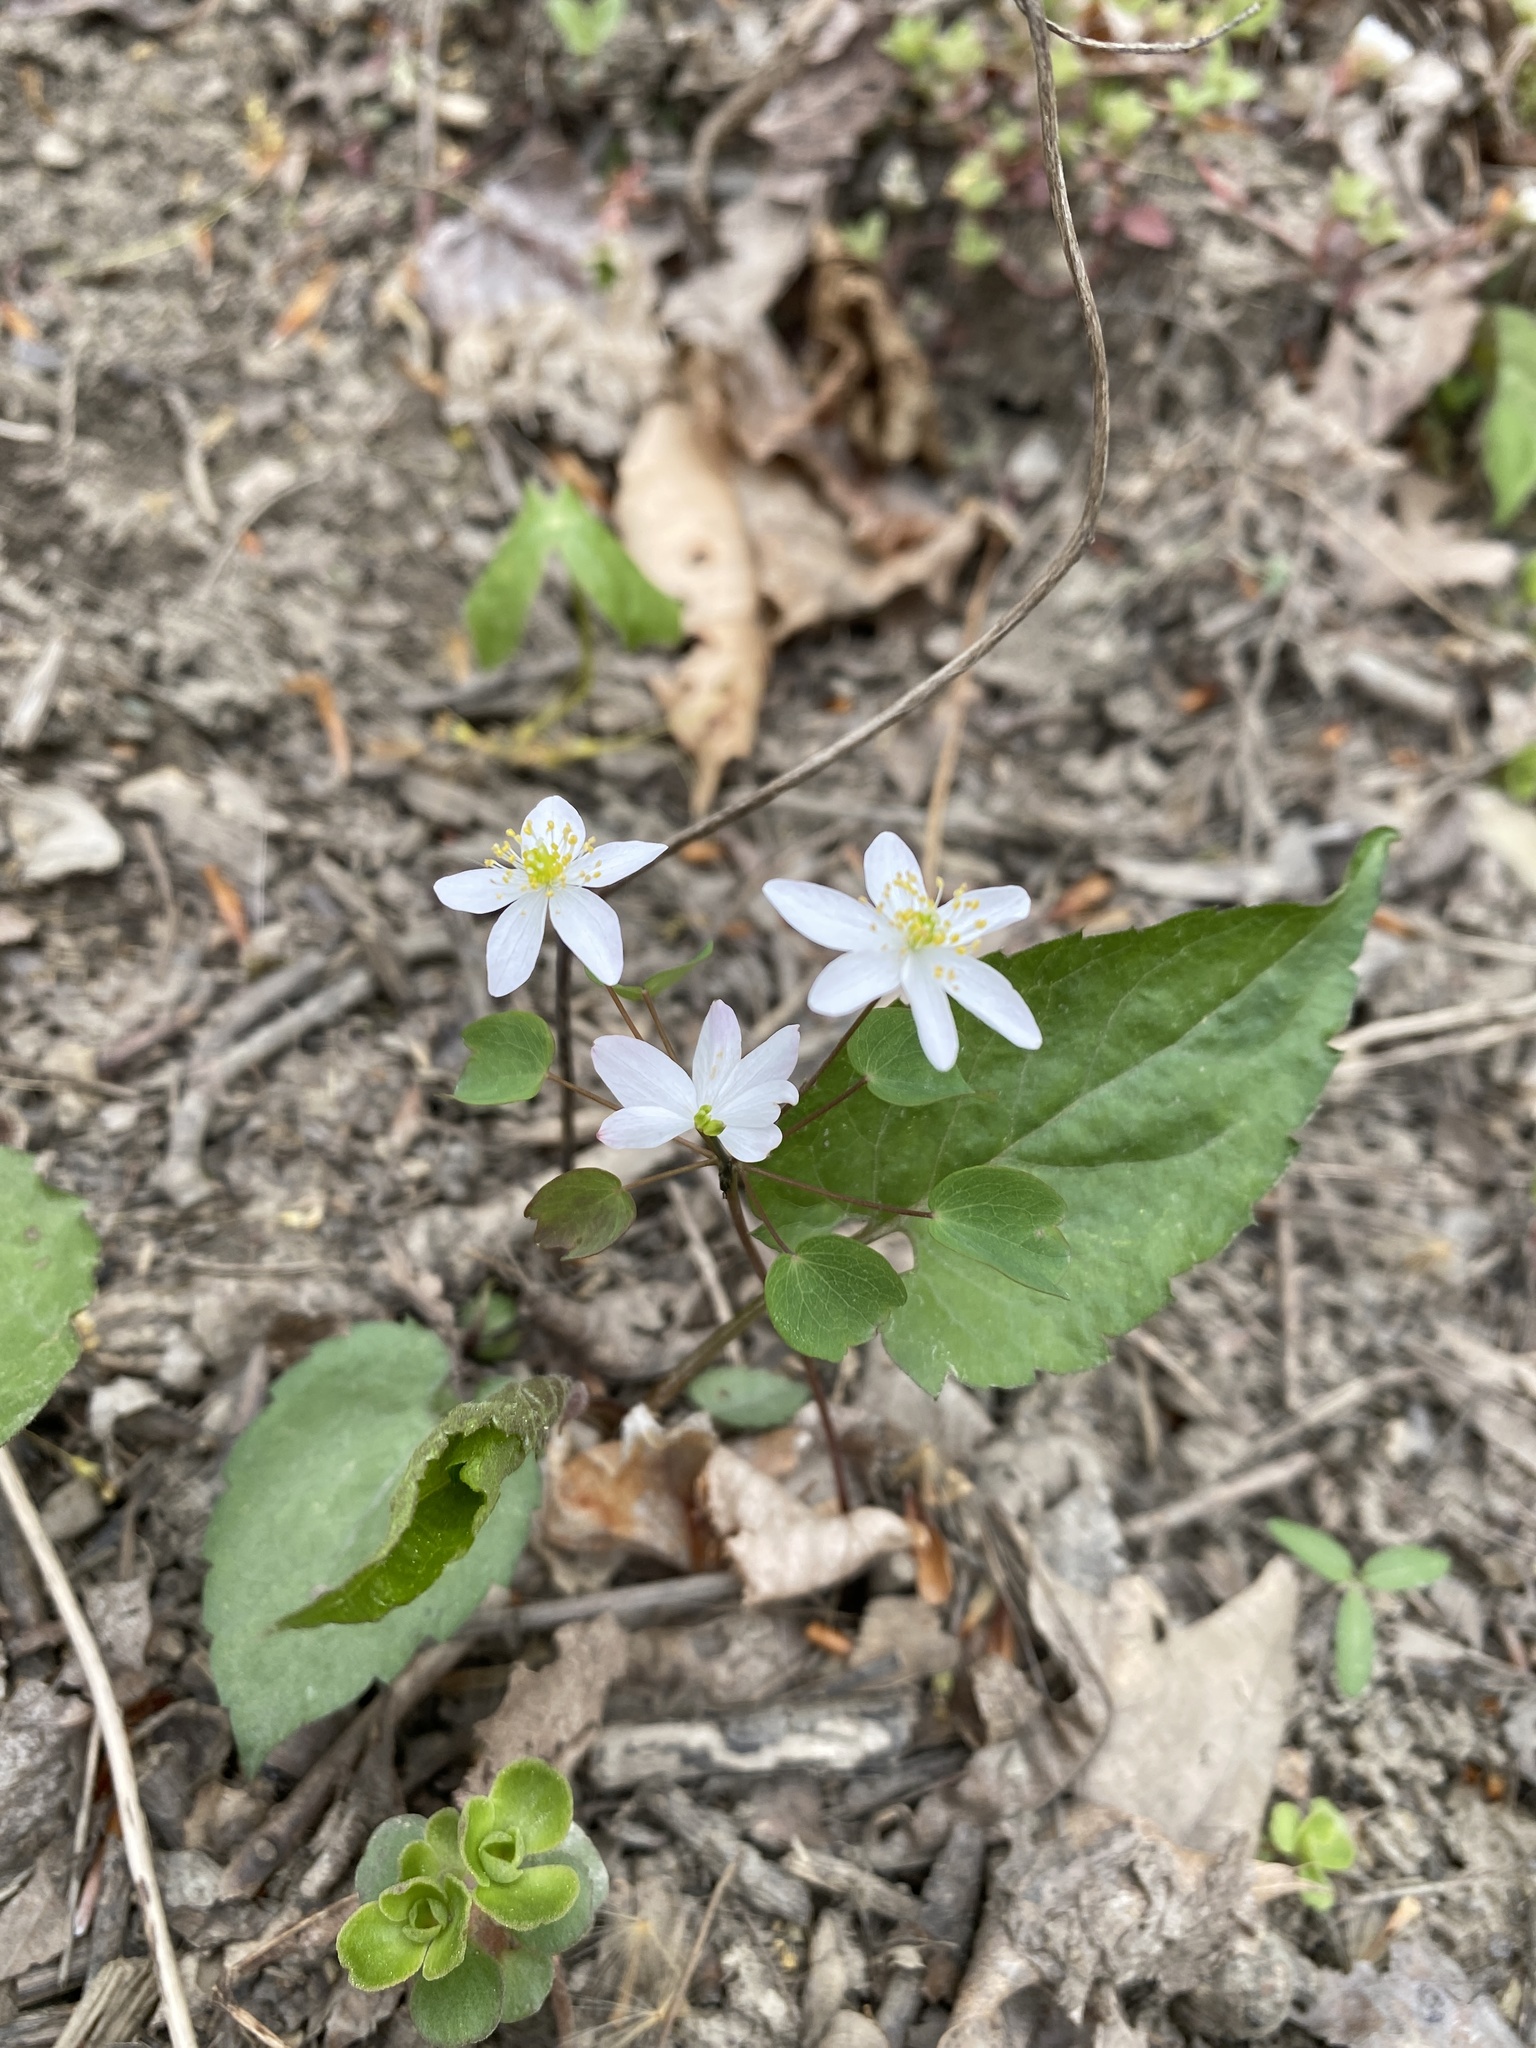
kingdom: Plantae
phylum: Tracheophyta
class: Magnoliopsida
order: Ranunculales
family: Ranunculaceae
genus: Thalictrum
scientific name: Thalictrum thalictroides
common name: Rue-anemone
